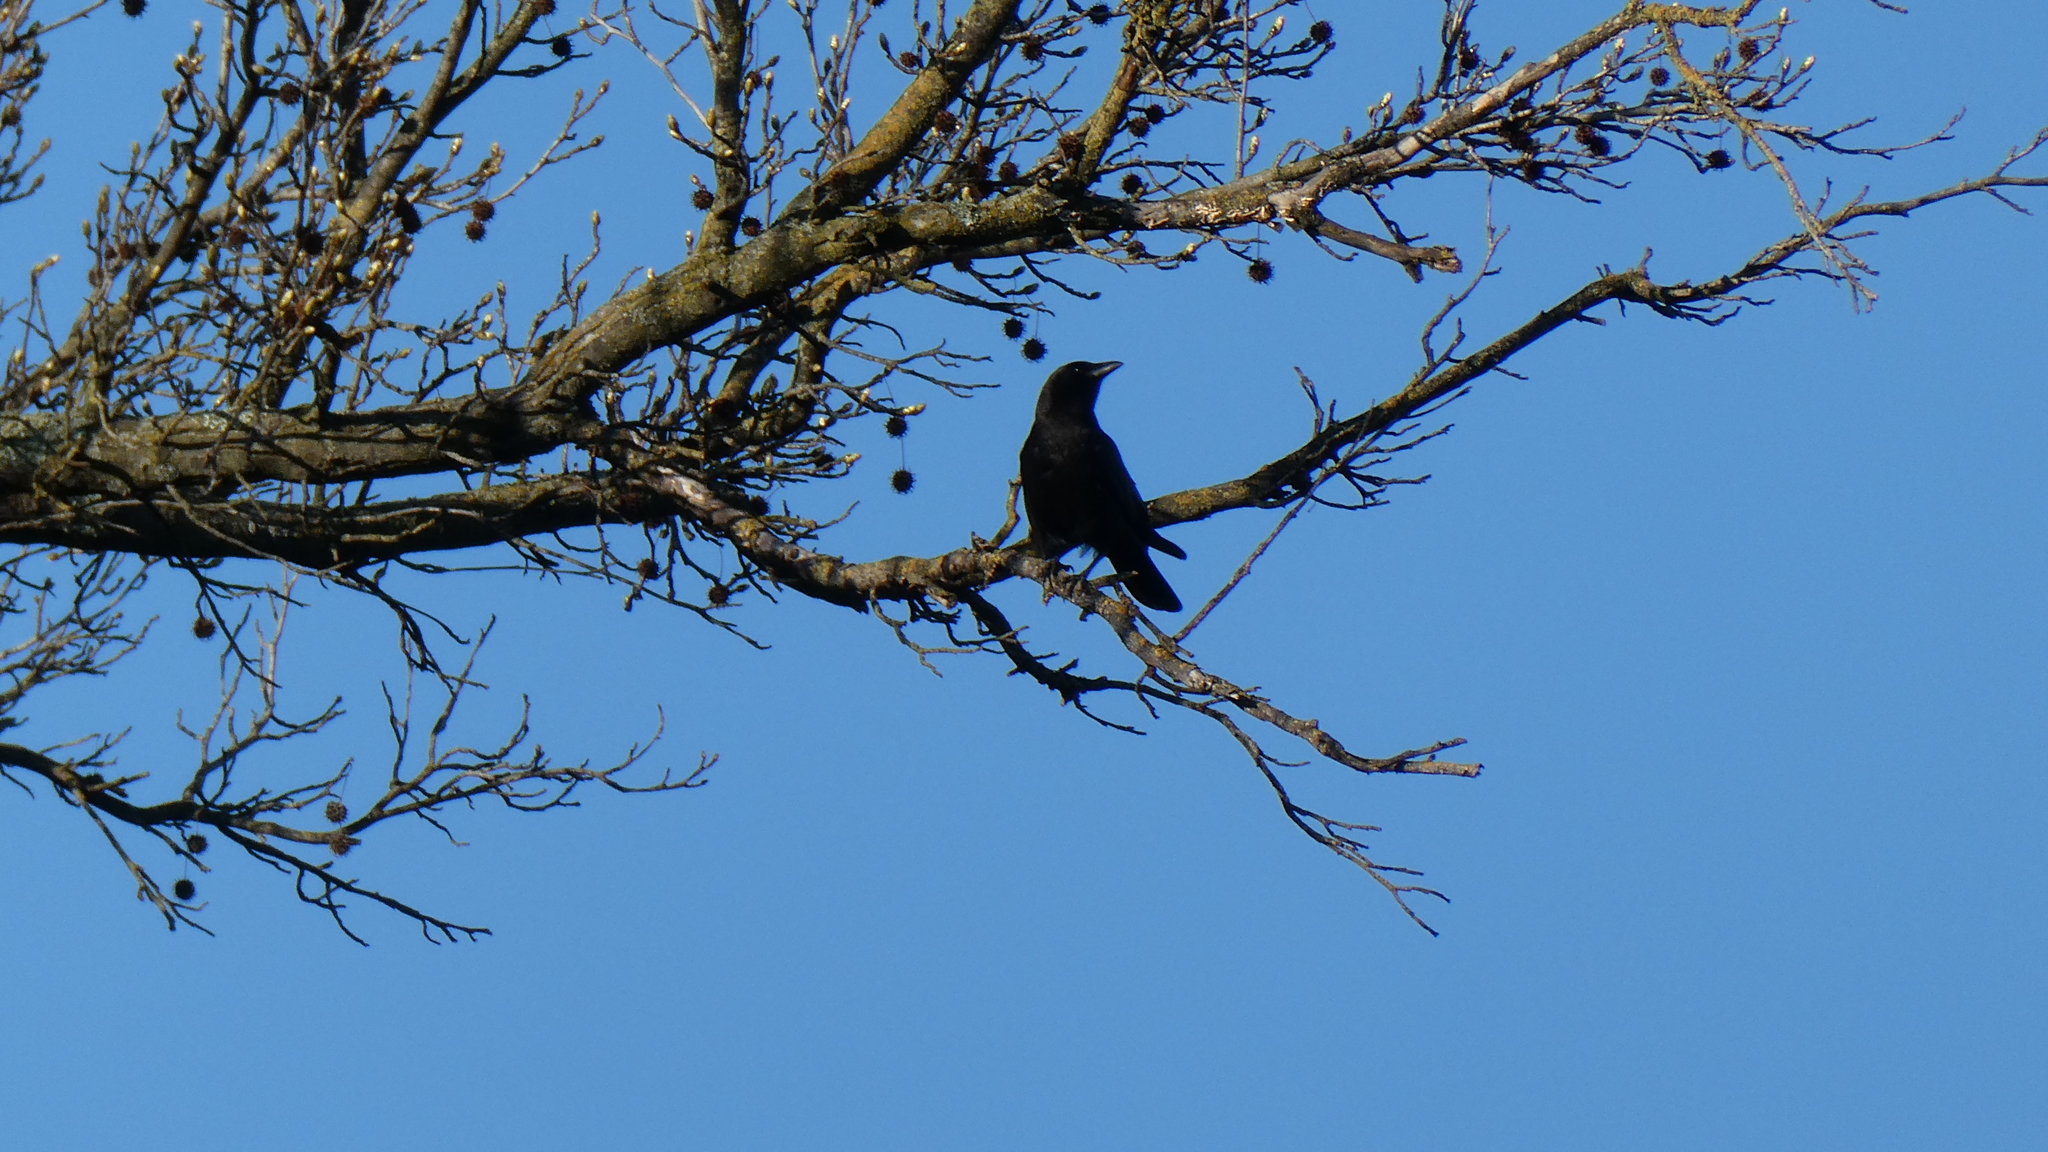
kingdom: Animalia
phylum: Chordata
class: Aves
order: Passeriformes
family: Corvidae
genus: Corvus
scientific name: Corvus brachyrhynchos
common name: American crow
